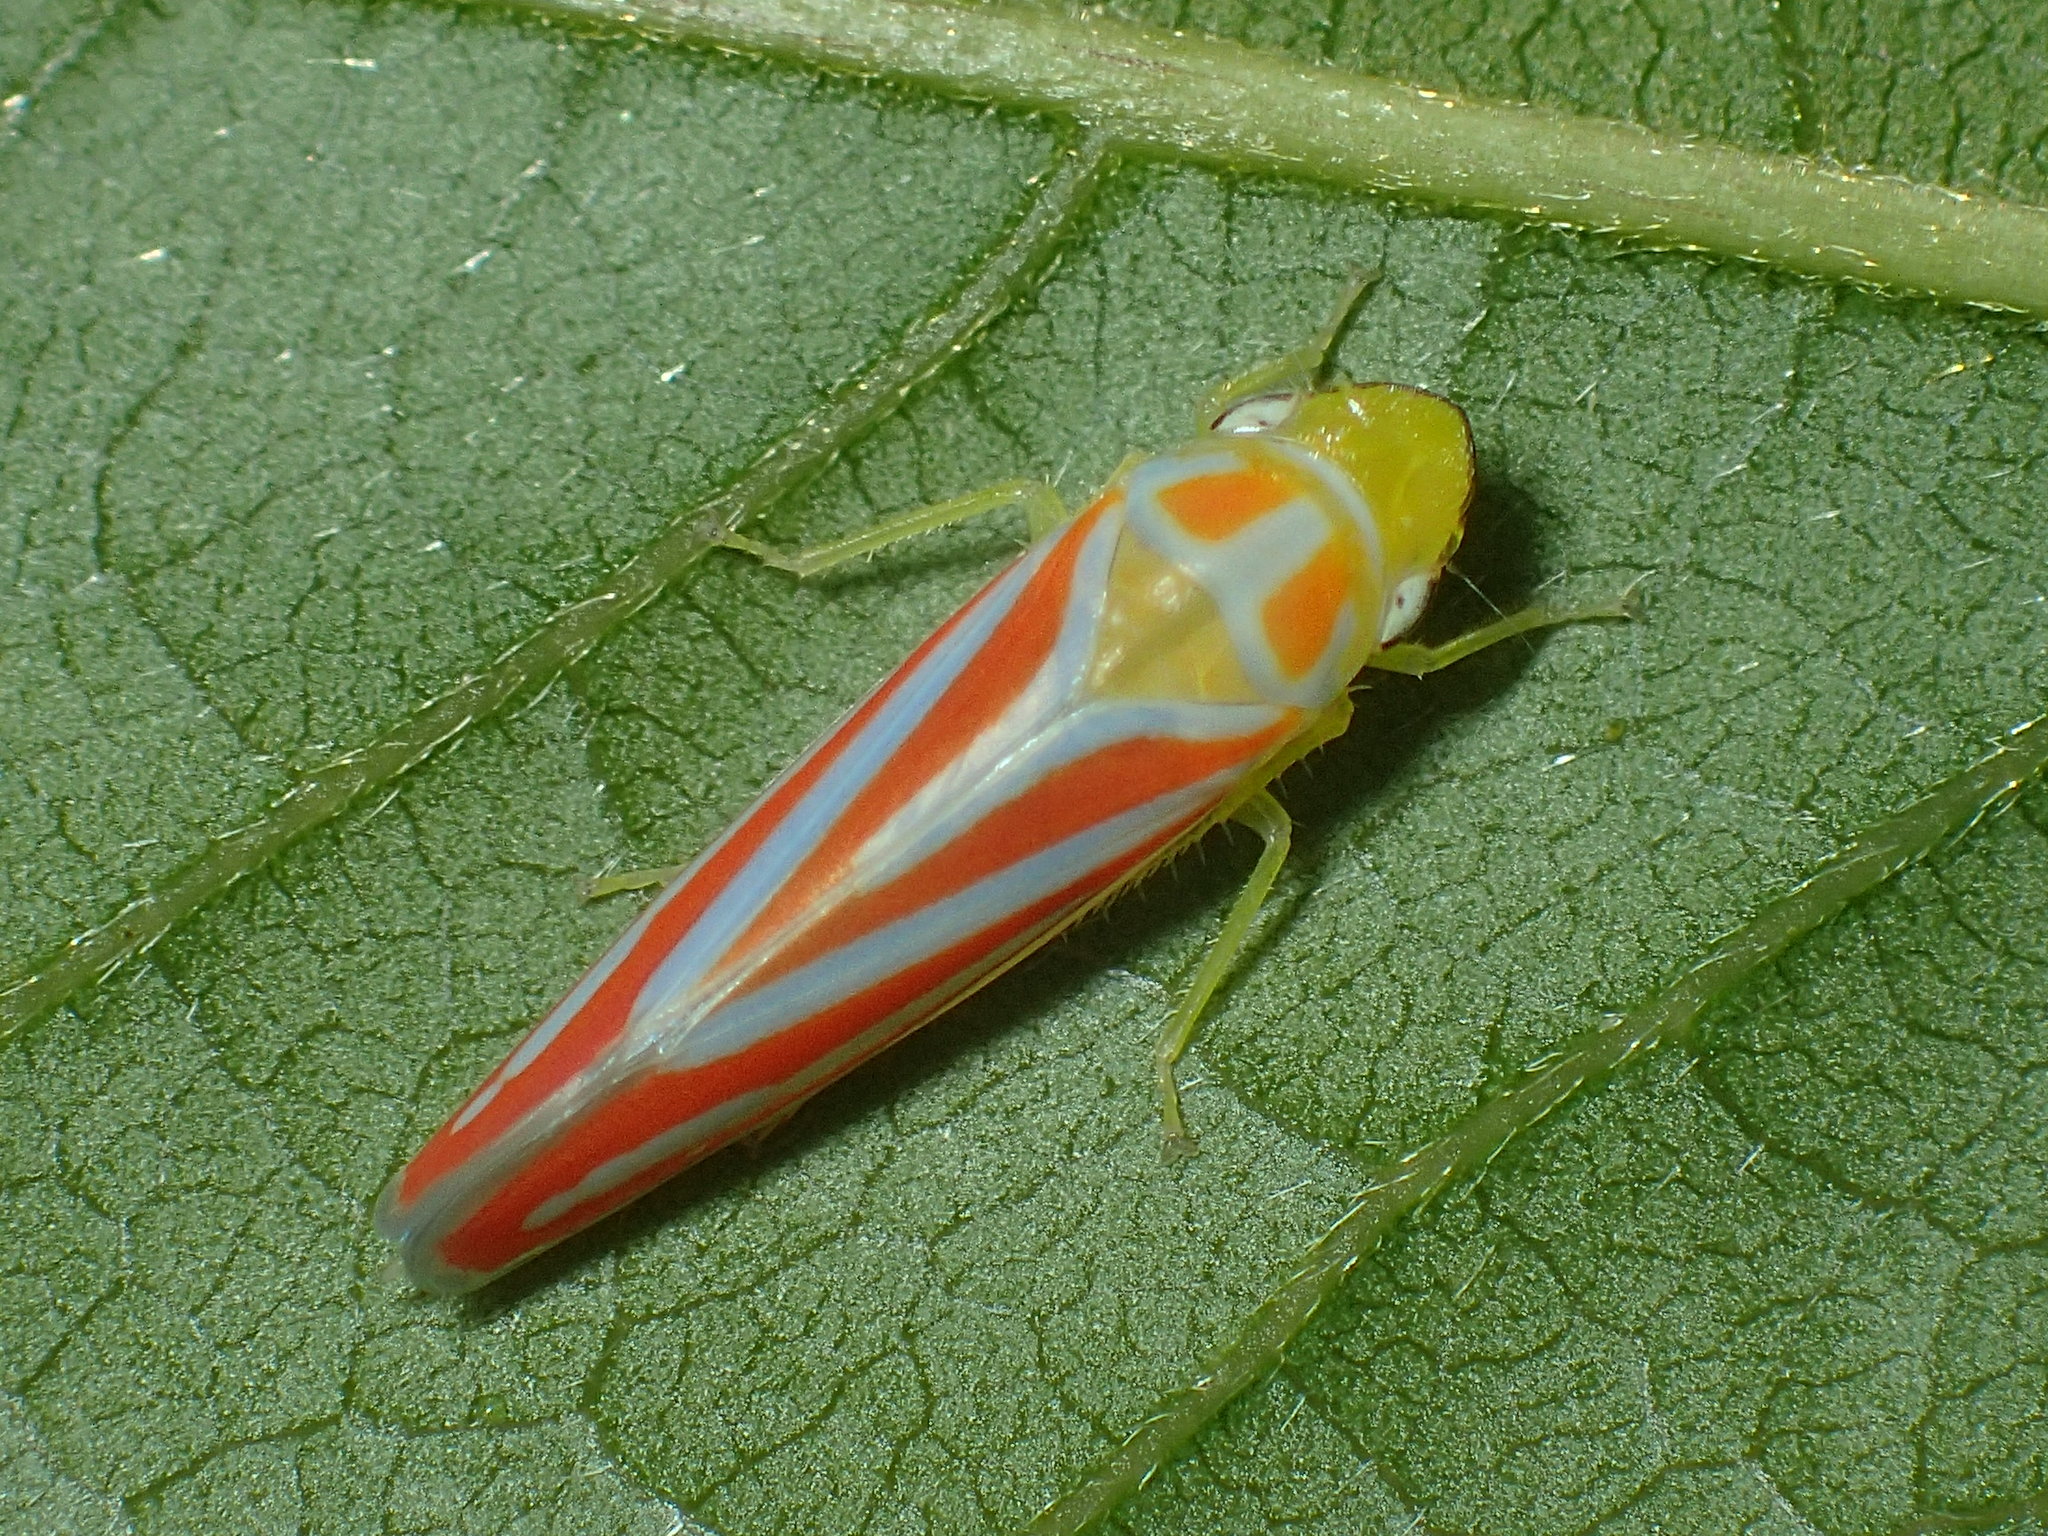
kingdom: Animalia
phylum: Arthropoda
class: Insecta
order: Hemiptera
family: Cicadellidae
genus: Graphocephala
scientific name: Graphocephala coccinea
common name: Candy-striped leafhopper
